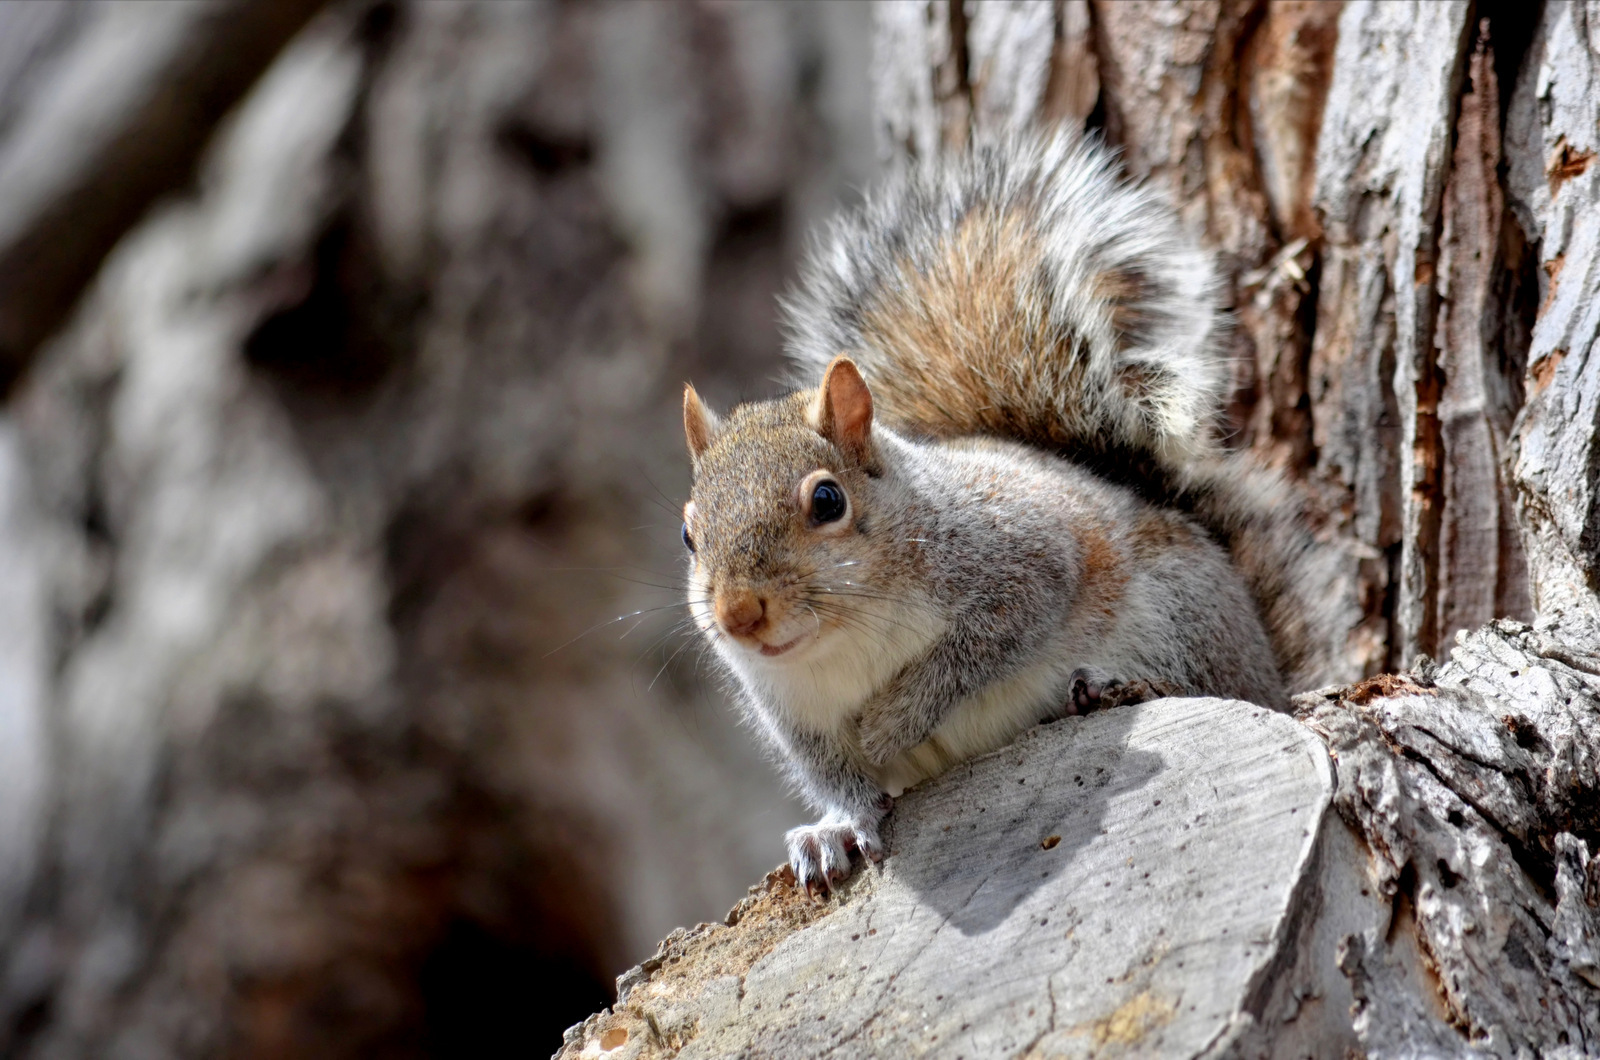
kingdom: Animalia
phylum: Chordata
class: Mammalia
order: Rodentia
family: Sciuridae
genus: Sciurus
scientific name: Sciurus carolinensis
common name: Eastern gray squirrel
